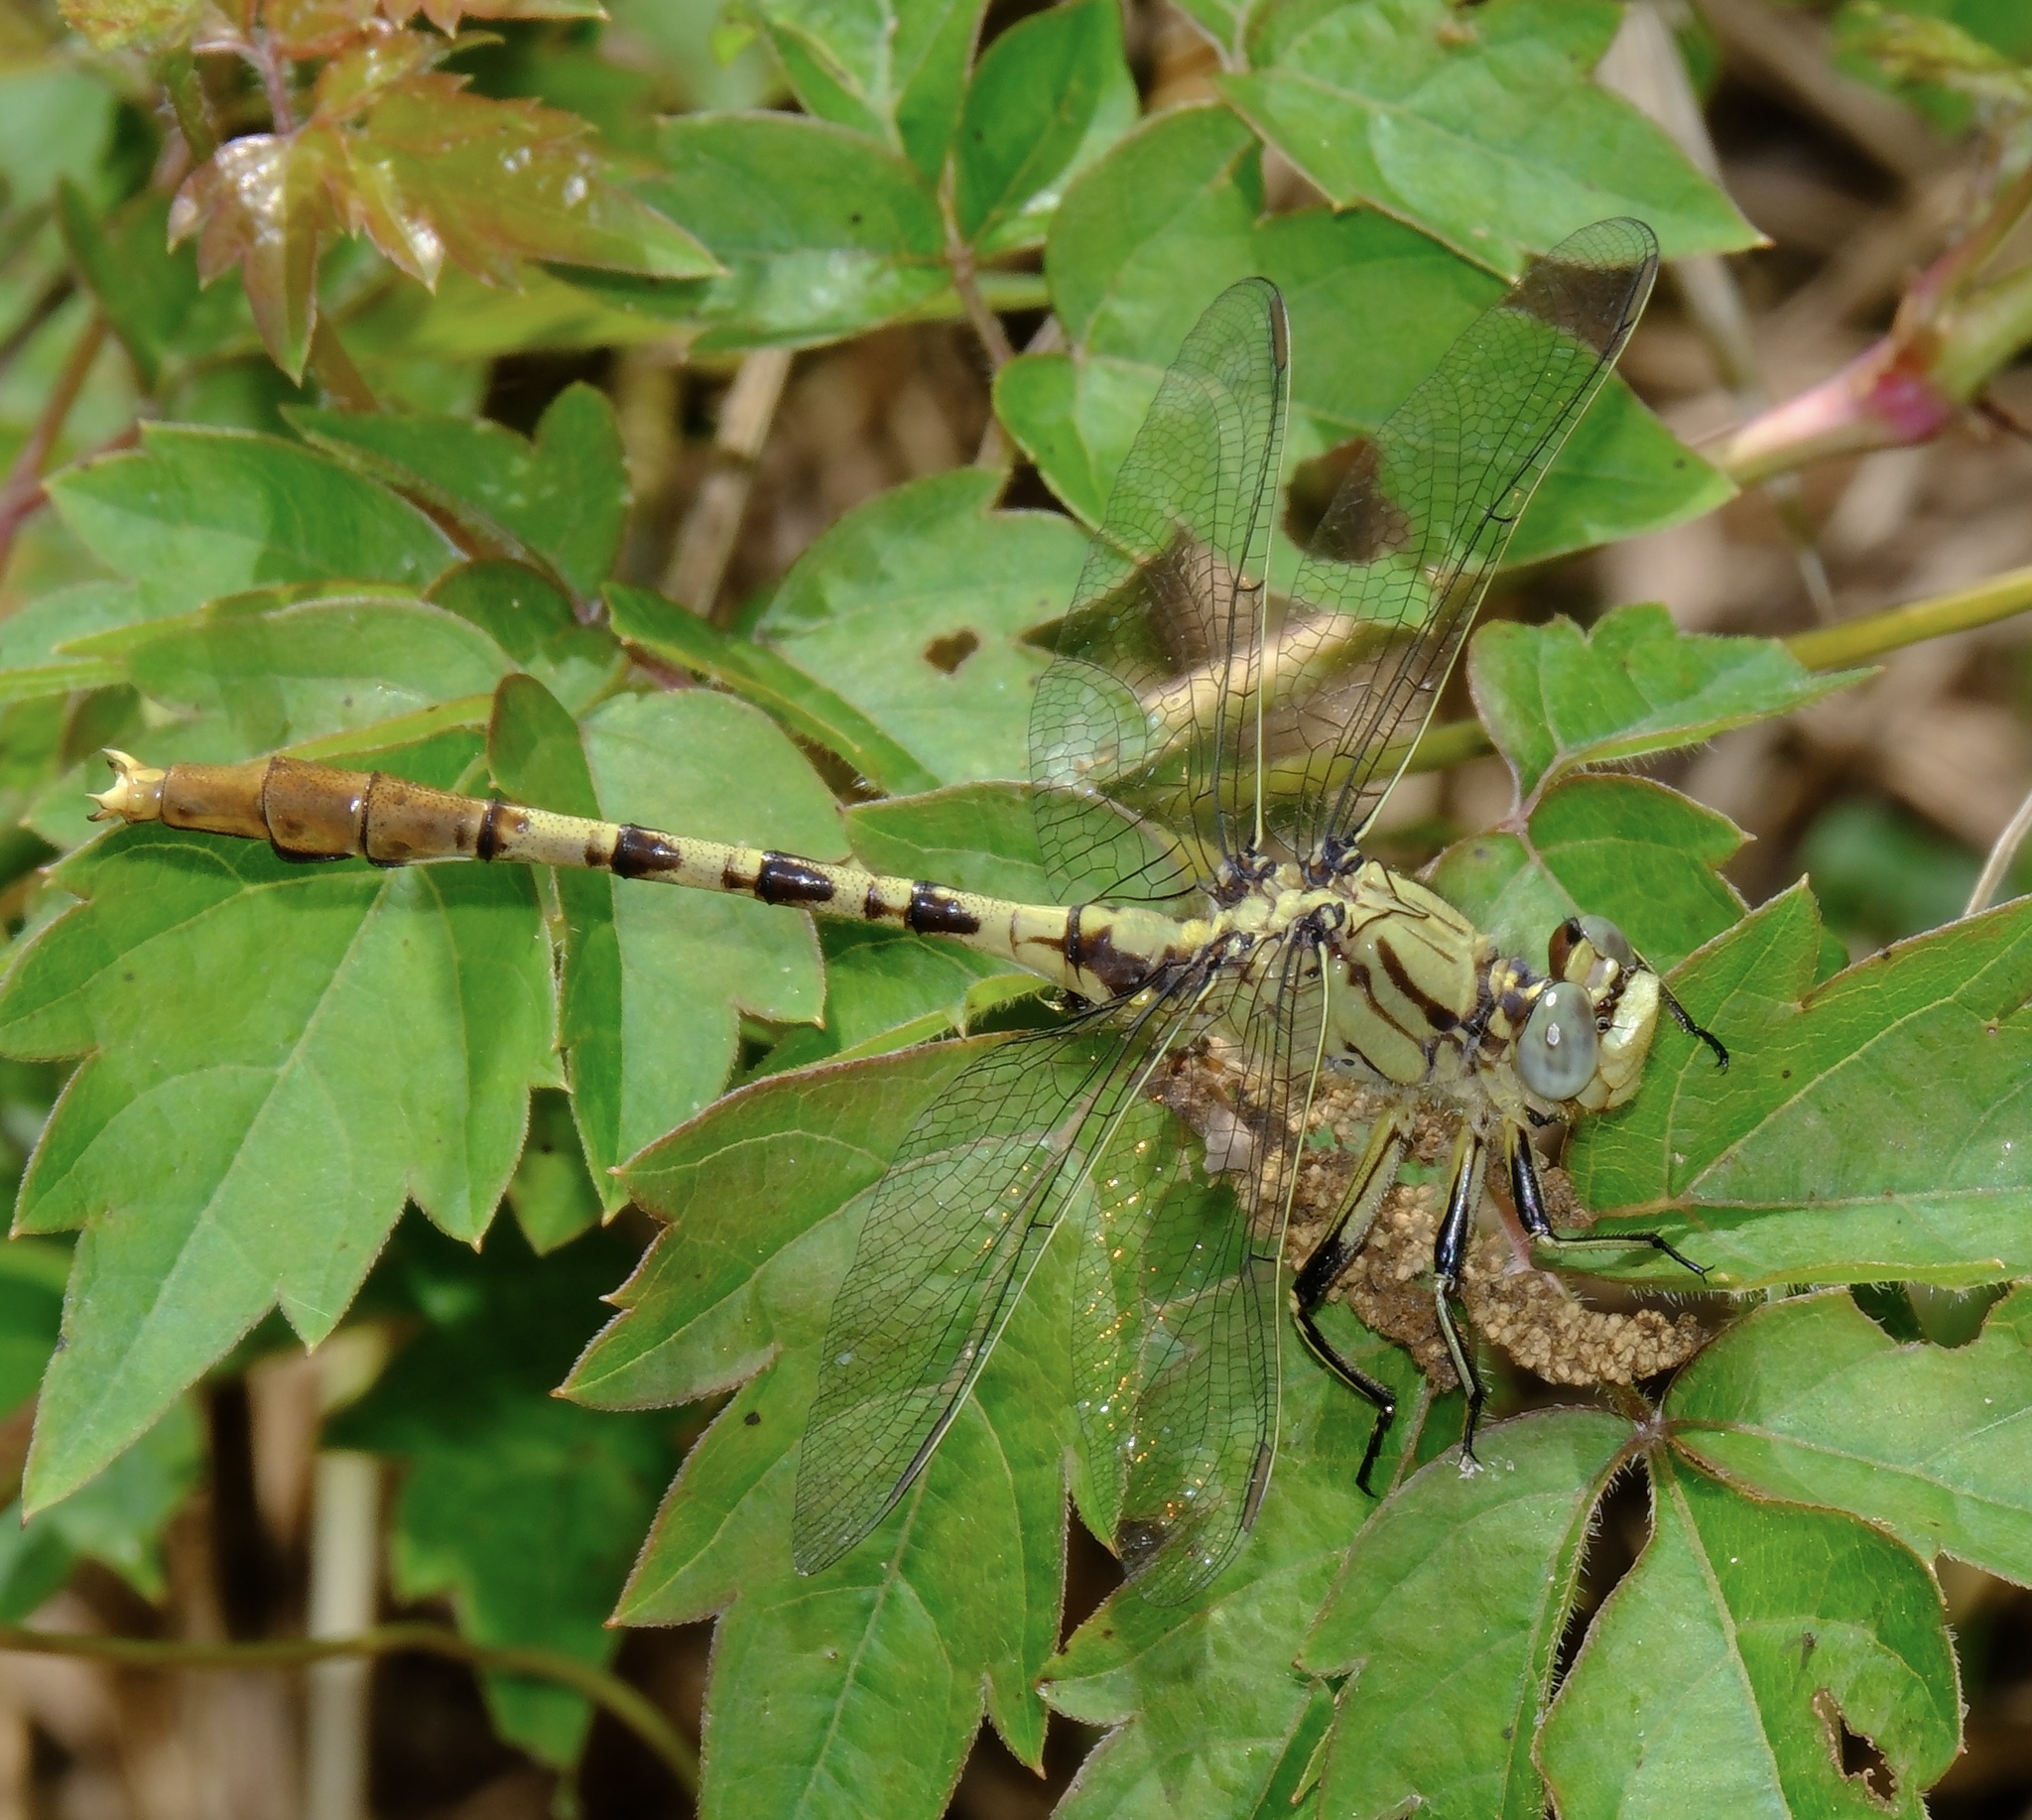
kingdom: Animalia
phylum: Arthropoda
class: Insecta
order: Odonata
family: Gomphidae
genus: Arigomphus
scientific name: Arigomphus submedianus
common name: Jade clubtail
